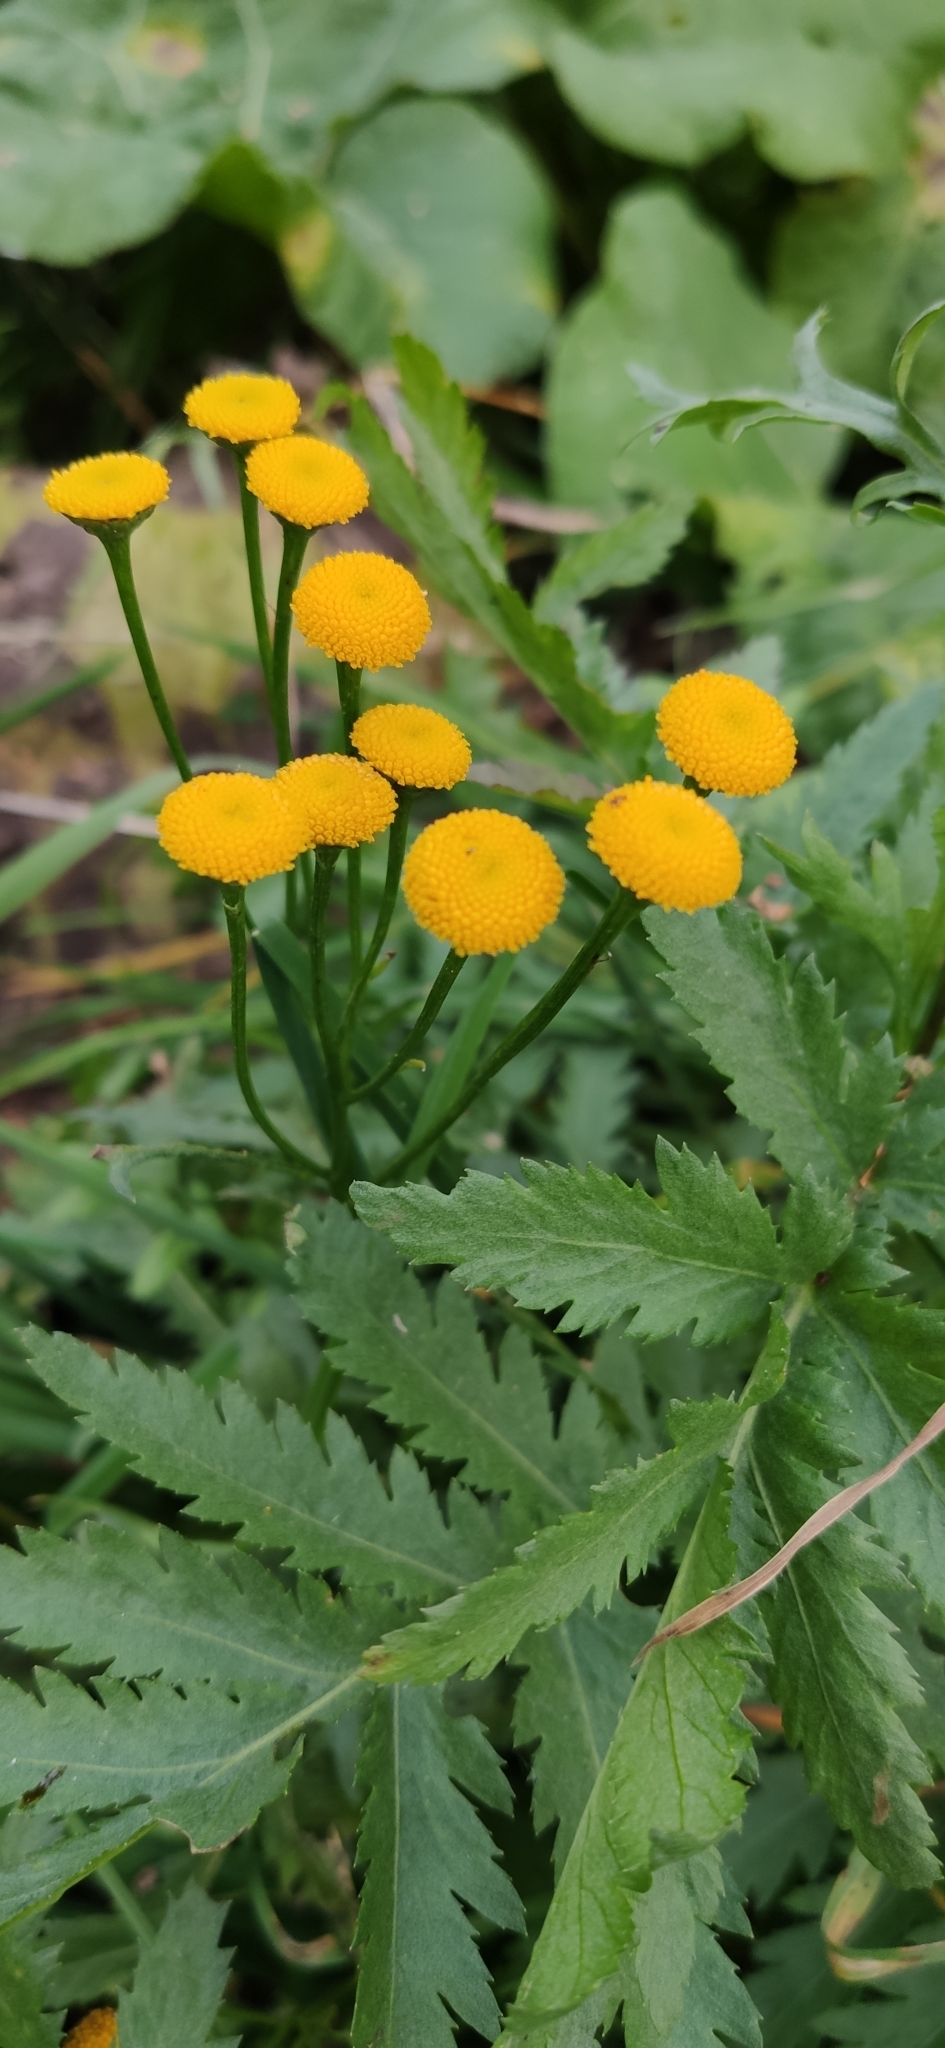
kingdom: Plantae
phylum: Tracheophyta
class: Magnoliopsida
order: Asterales
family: Asteraceae
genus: Tanacetum
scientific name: Tanacetum vulgare
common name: Common tansy
